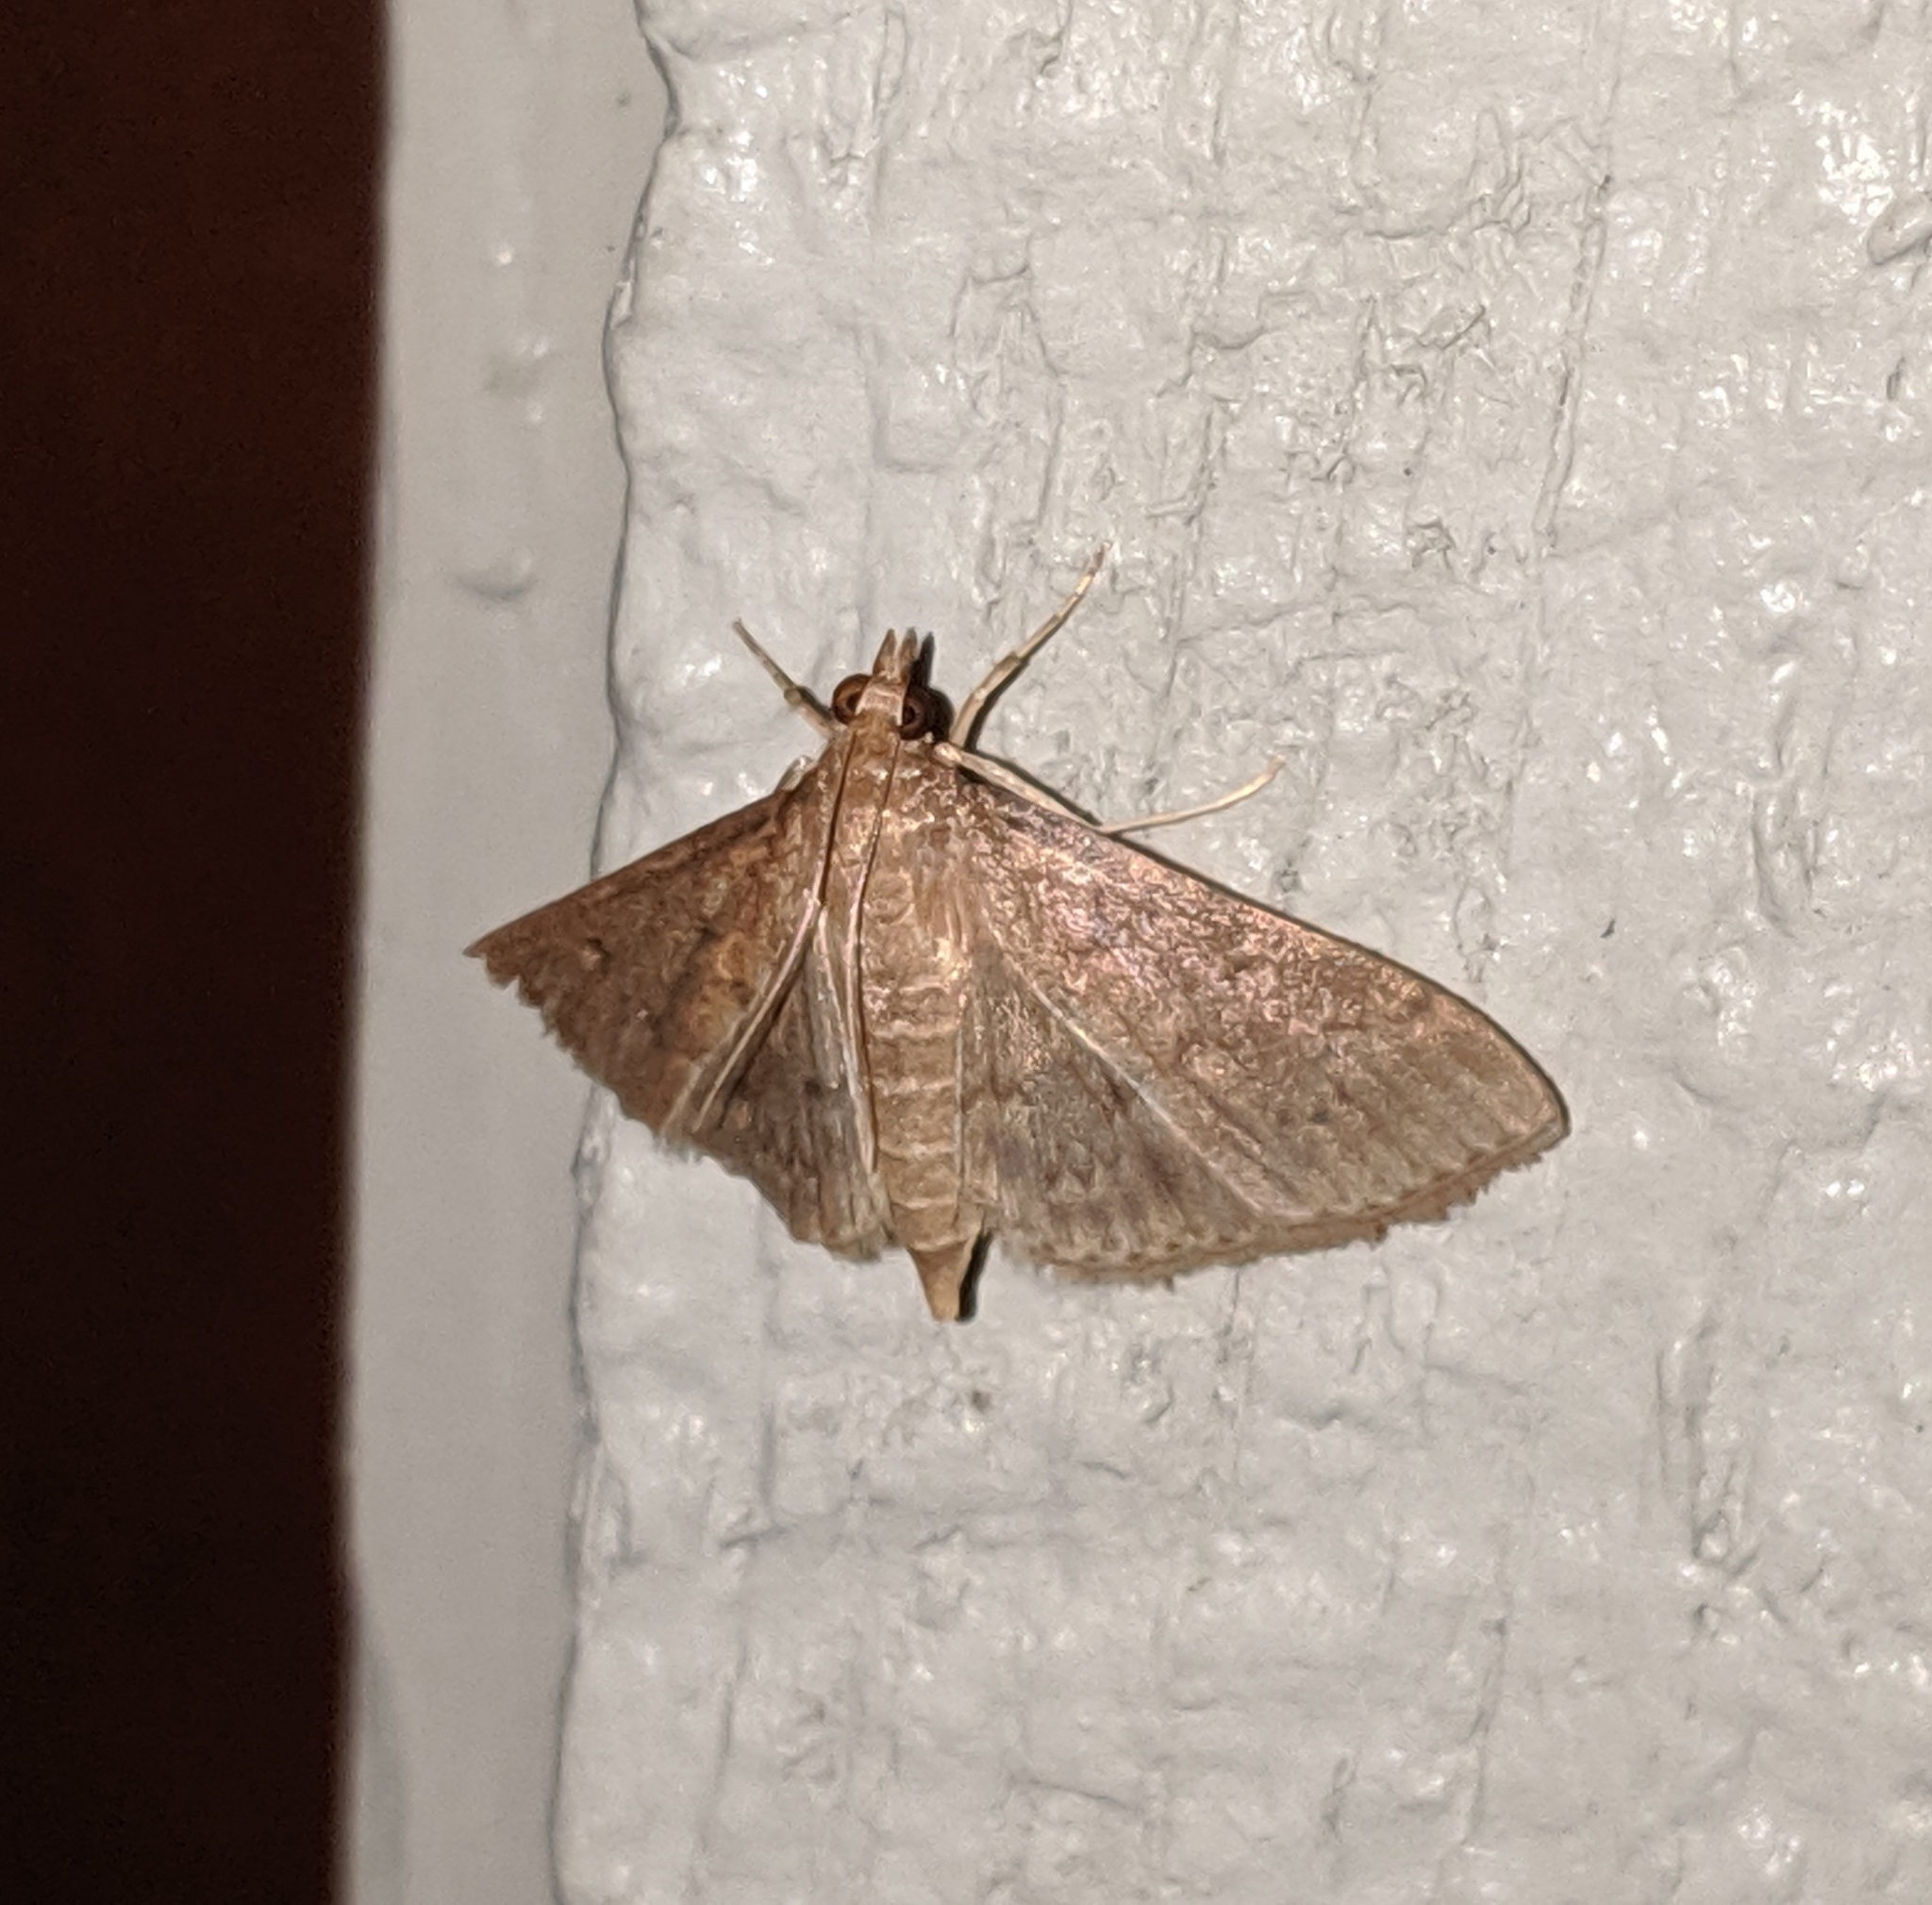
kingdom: Animalia
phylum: Arthropoda
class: Insecta
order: Lepidoptera
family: Crambidae
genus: Herpetogramma
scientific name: Herpetogramma licarsisalis
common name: Grass webworm
